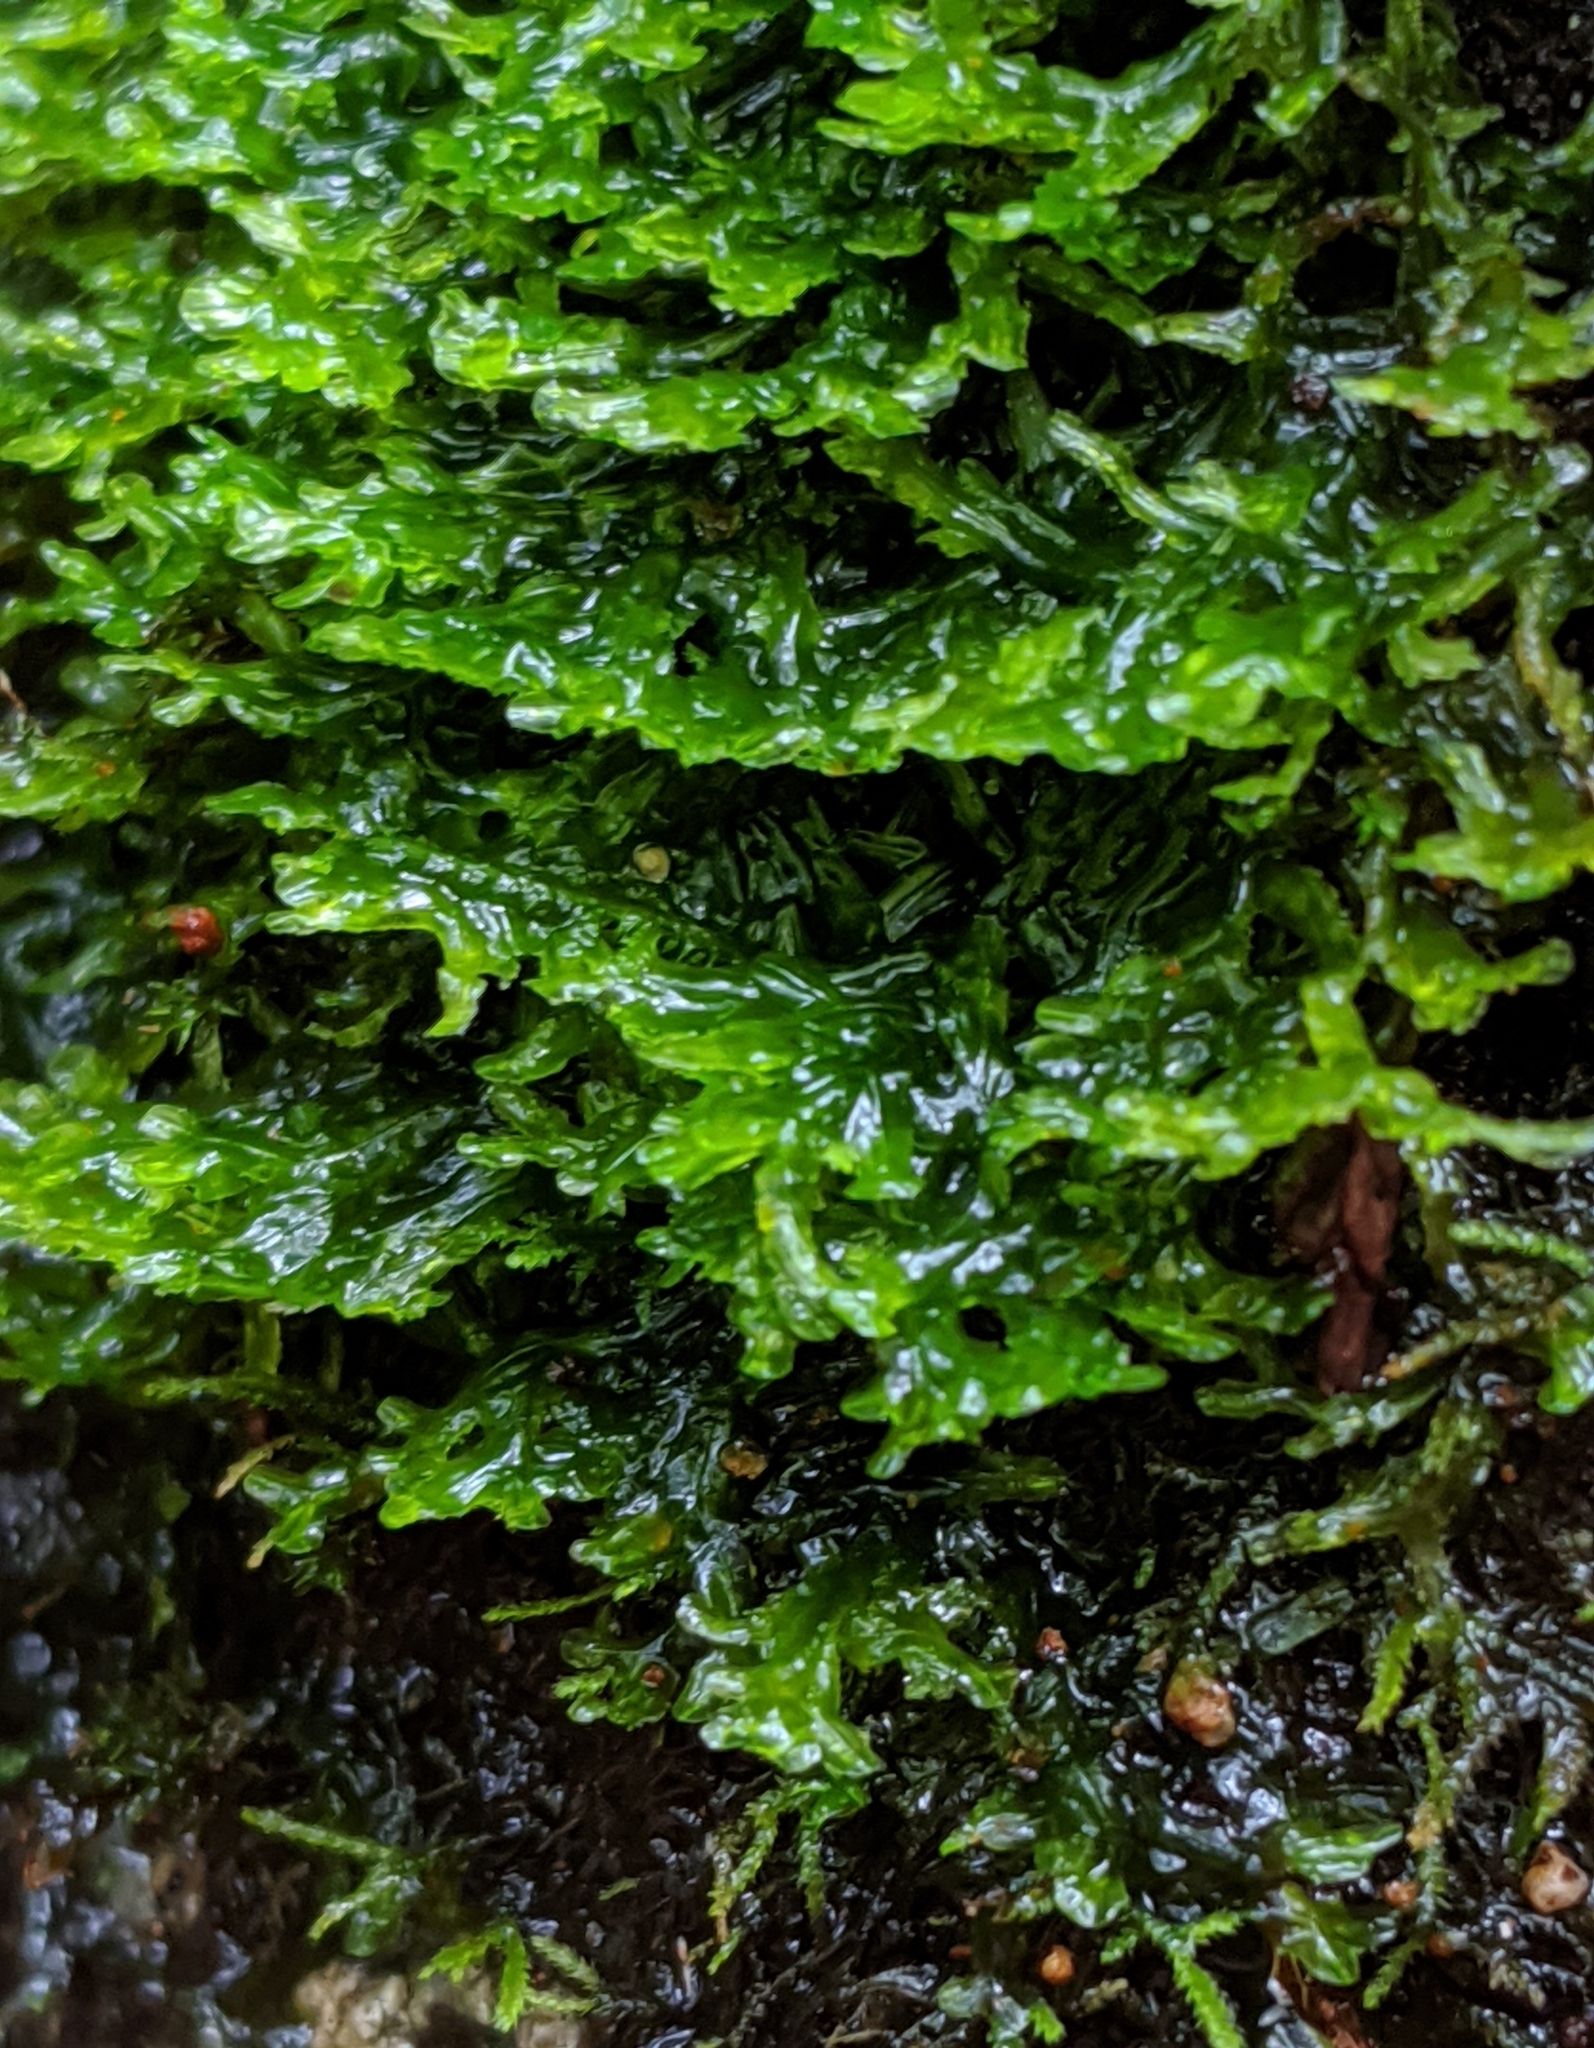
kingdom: Plantae
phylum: Marchantiophyta
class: Jungermanniopsida
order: Metzgeriales
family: Metzgeriaceae
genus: Metzgeria
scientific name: Metzgeria conjugata
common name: Rock veilwort
